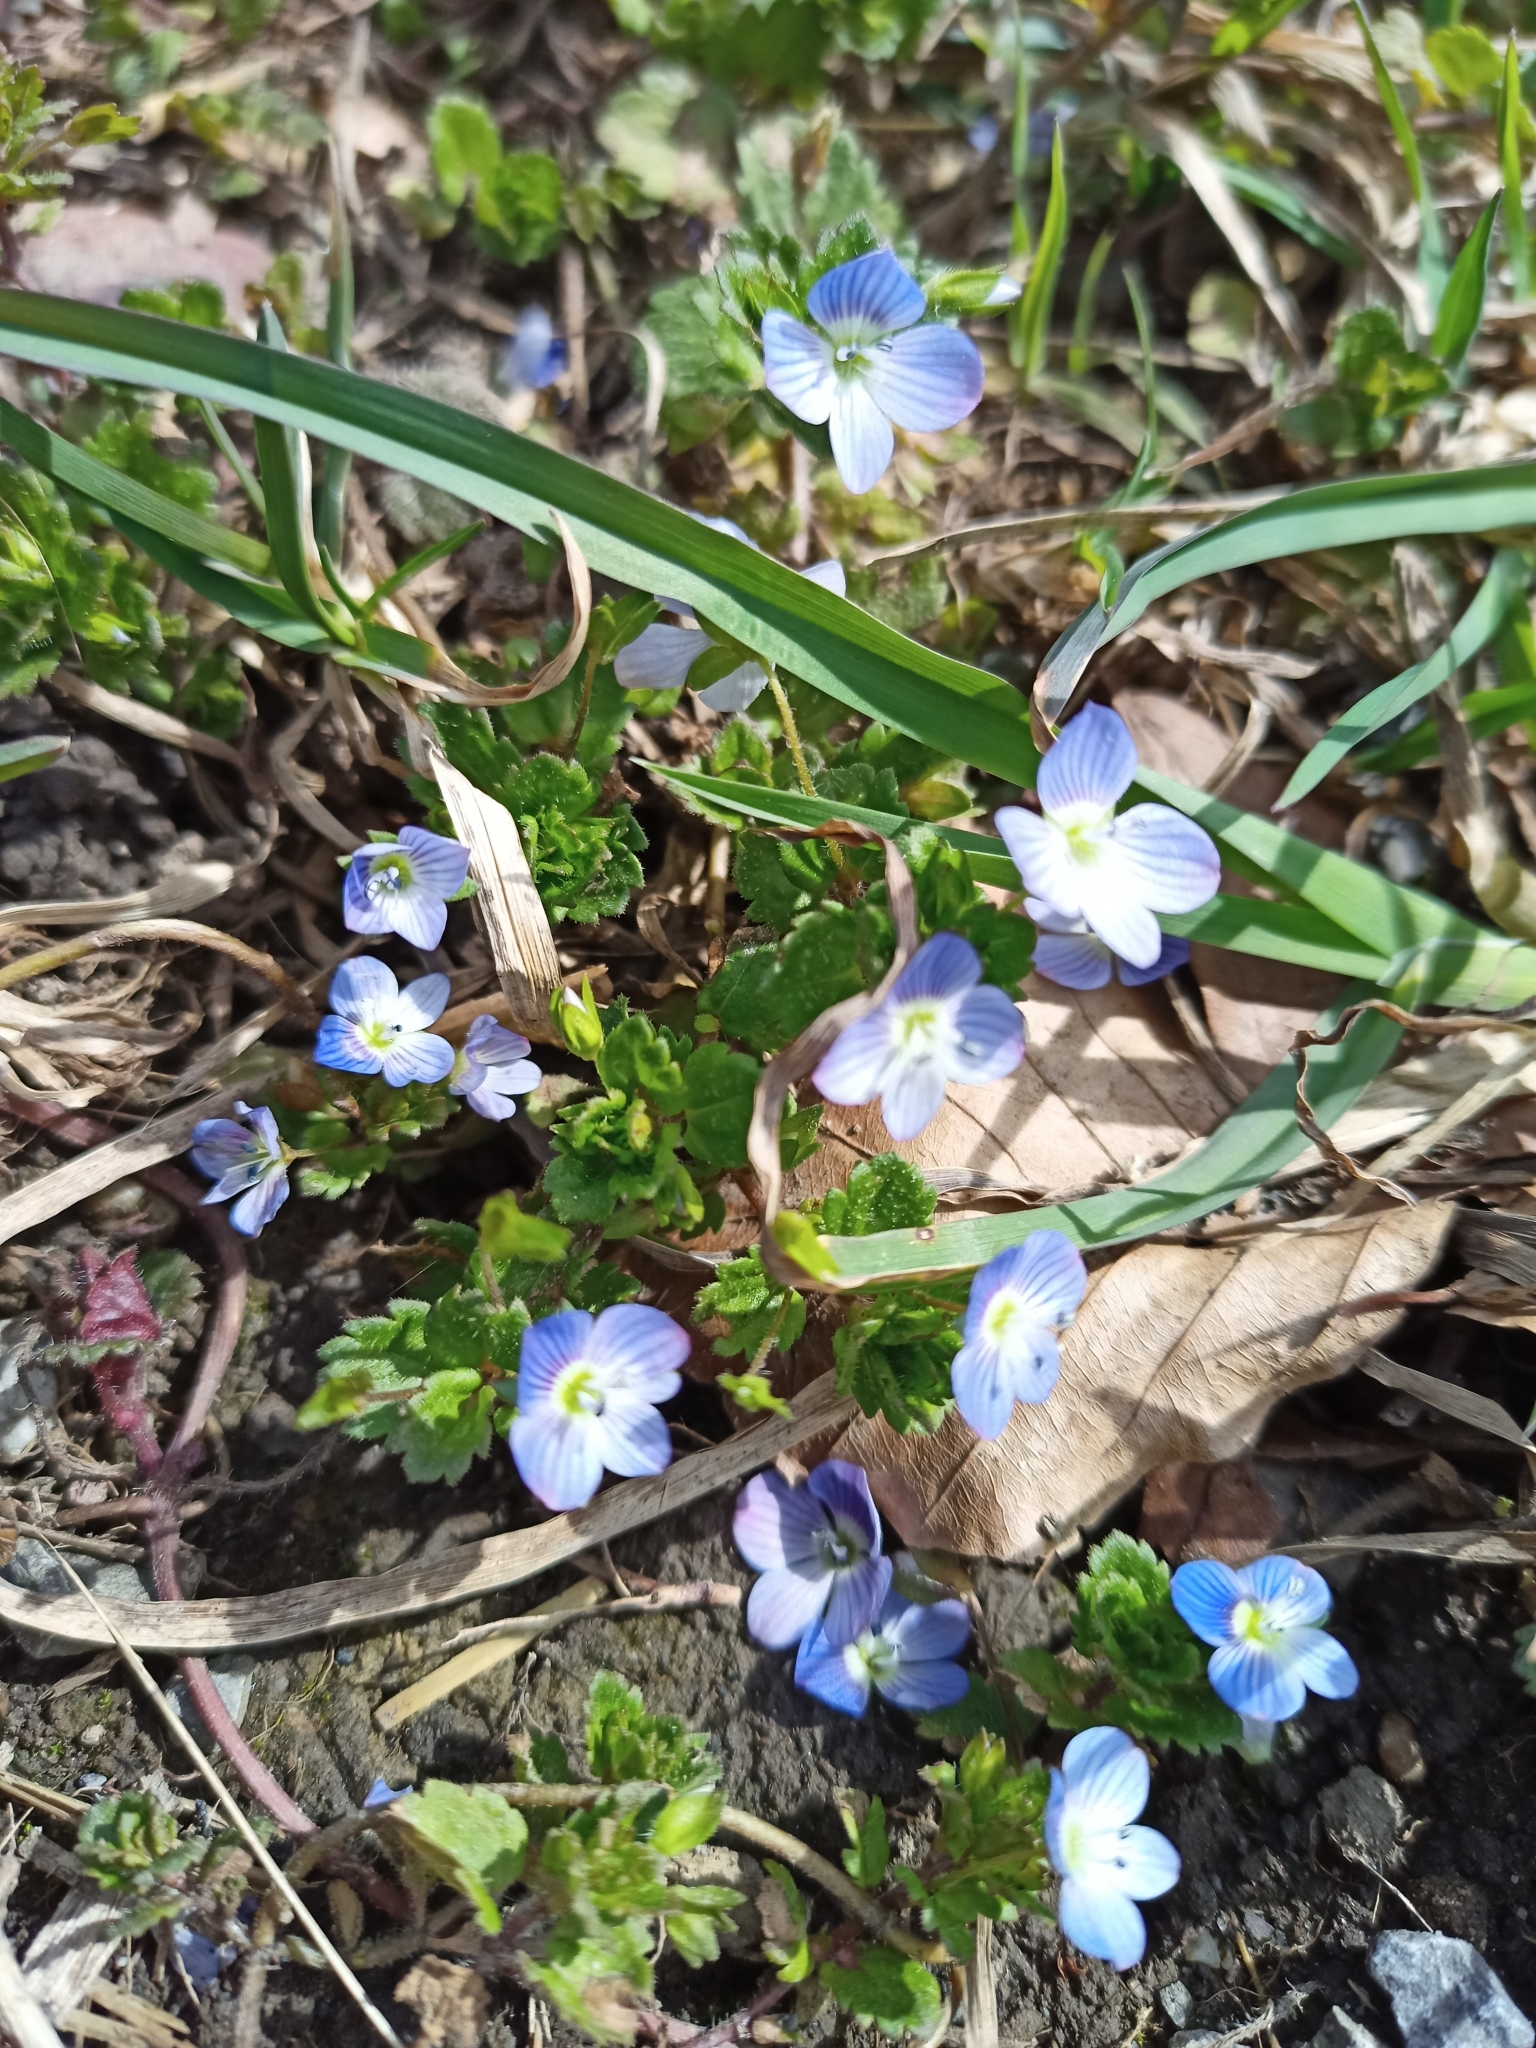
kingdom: Plantae
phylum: Tracheophyta
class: Magnoliopsida
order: Lamiales
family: Plantaginaceae
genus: Veronica
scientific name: Veronica persica
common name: Common field-speedwell
